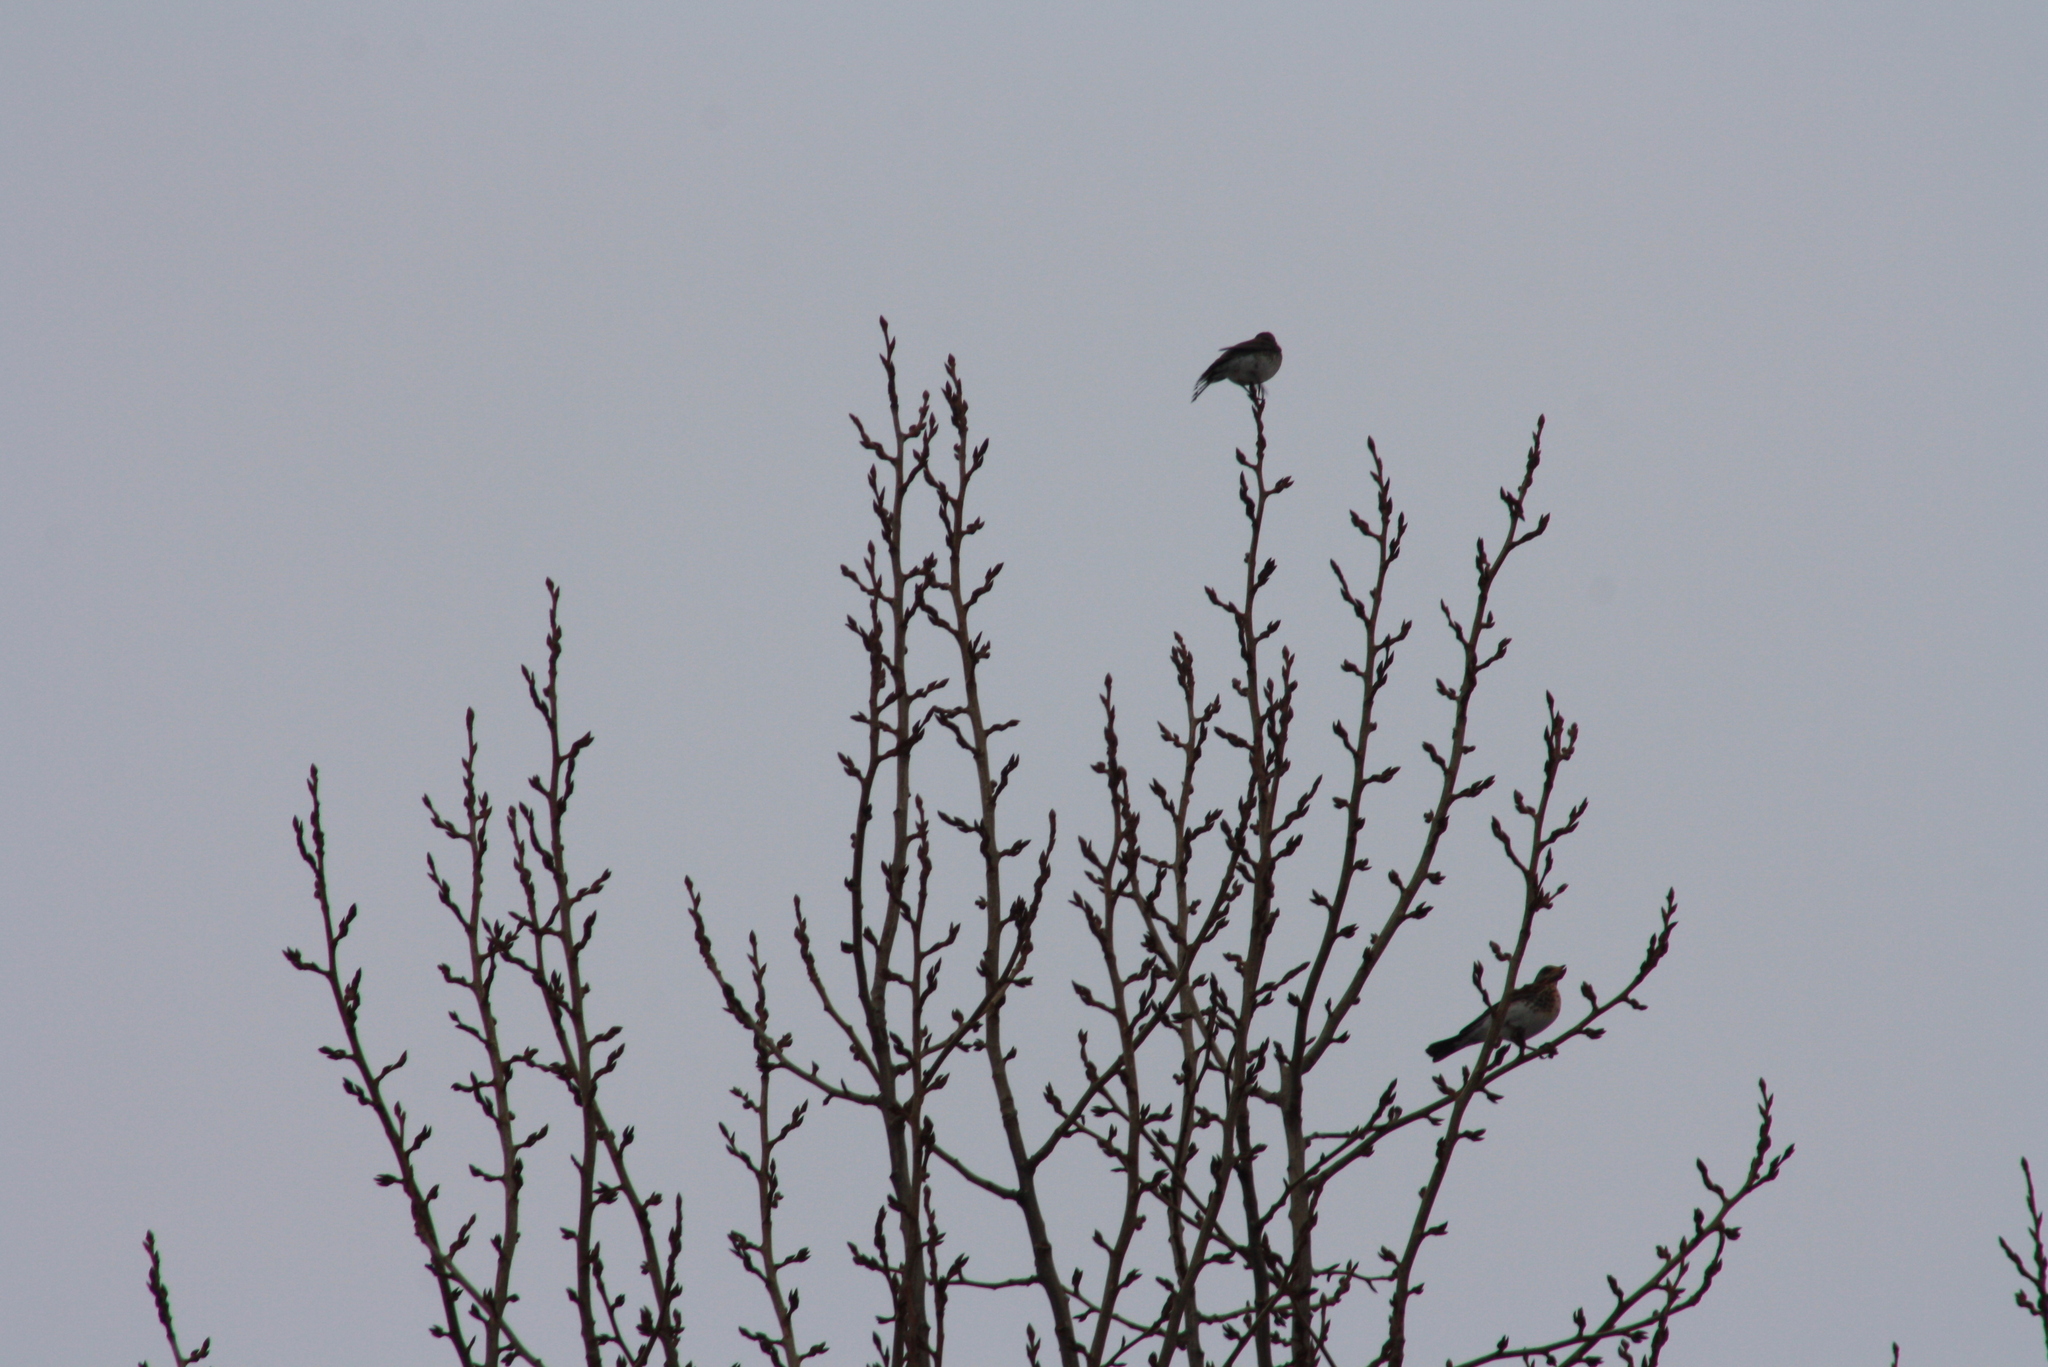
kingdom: Animalia
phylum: Chordata
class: Aves
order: Passeriformes
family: Turdidae
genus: Turdus
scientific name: Turdus pilaris
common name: Fieldfare
